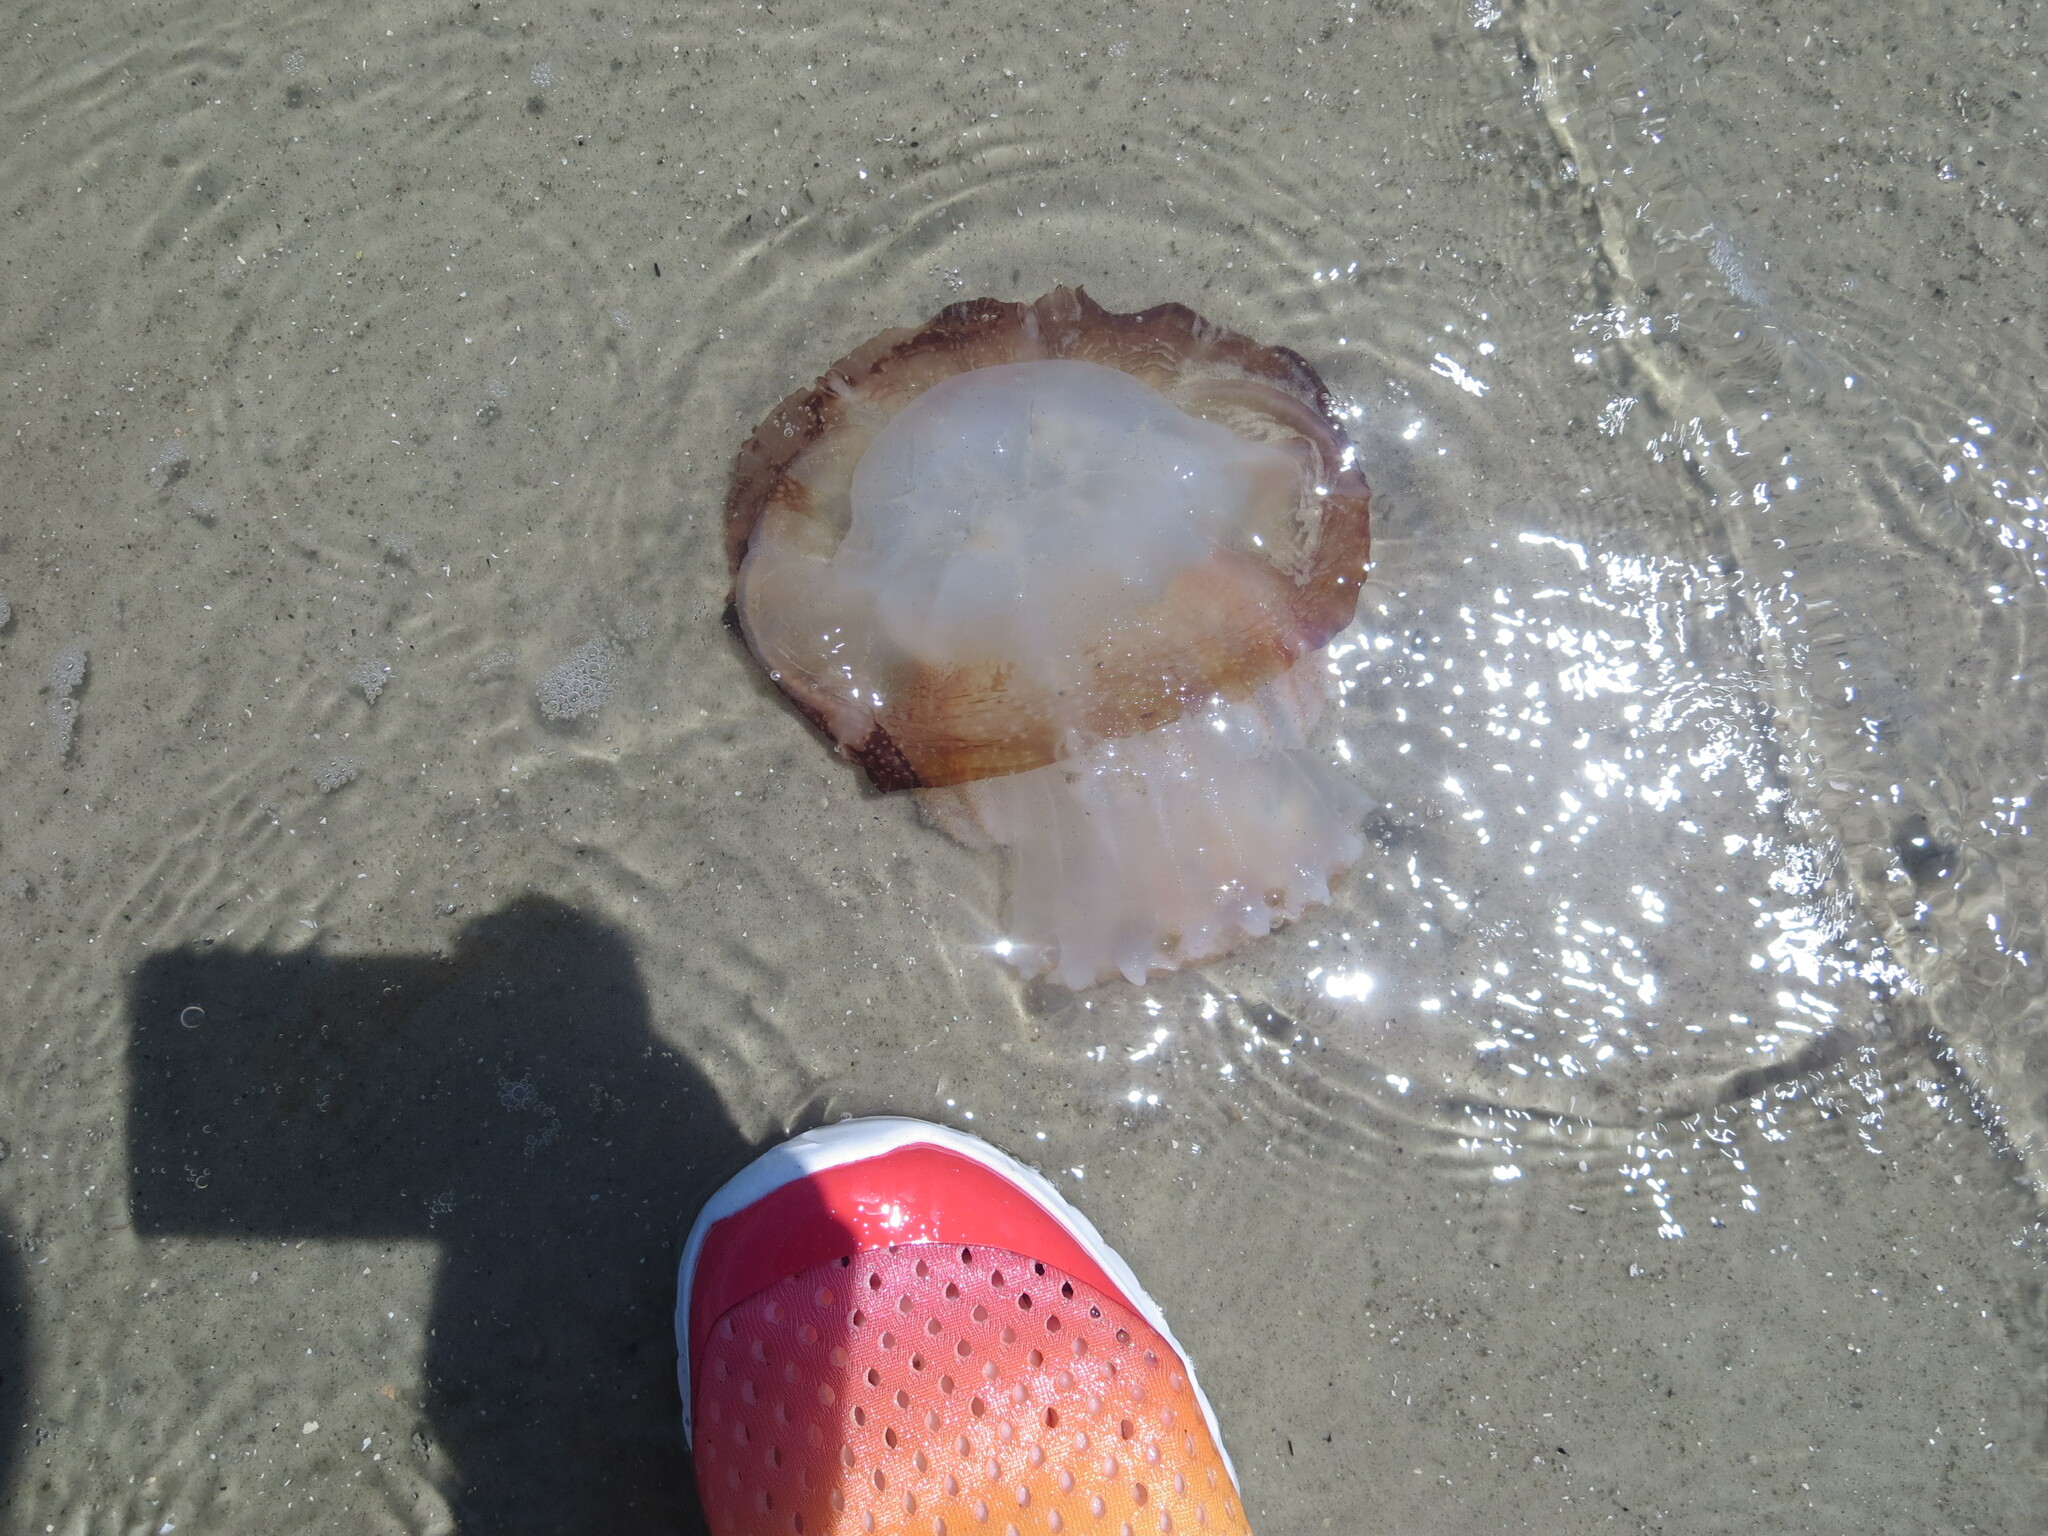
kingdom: Animalia
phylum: Cnidaria
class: Scyphozoa
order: Rhizostomeae
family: Stomolophidae
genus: Stomolophus
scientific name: Stomolophus meleagris
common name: Cabbagehead
